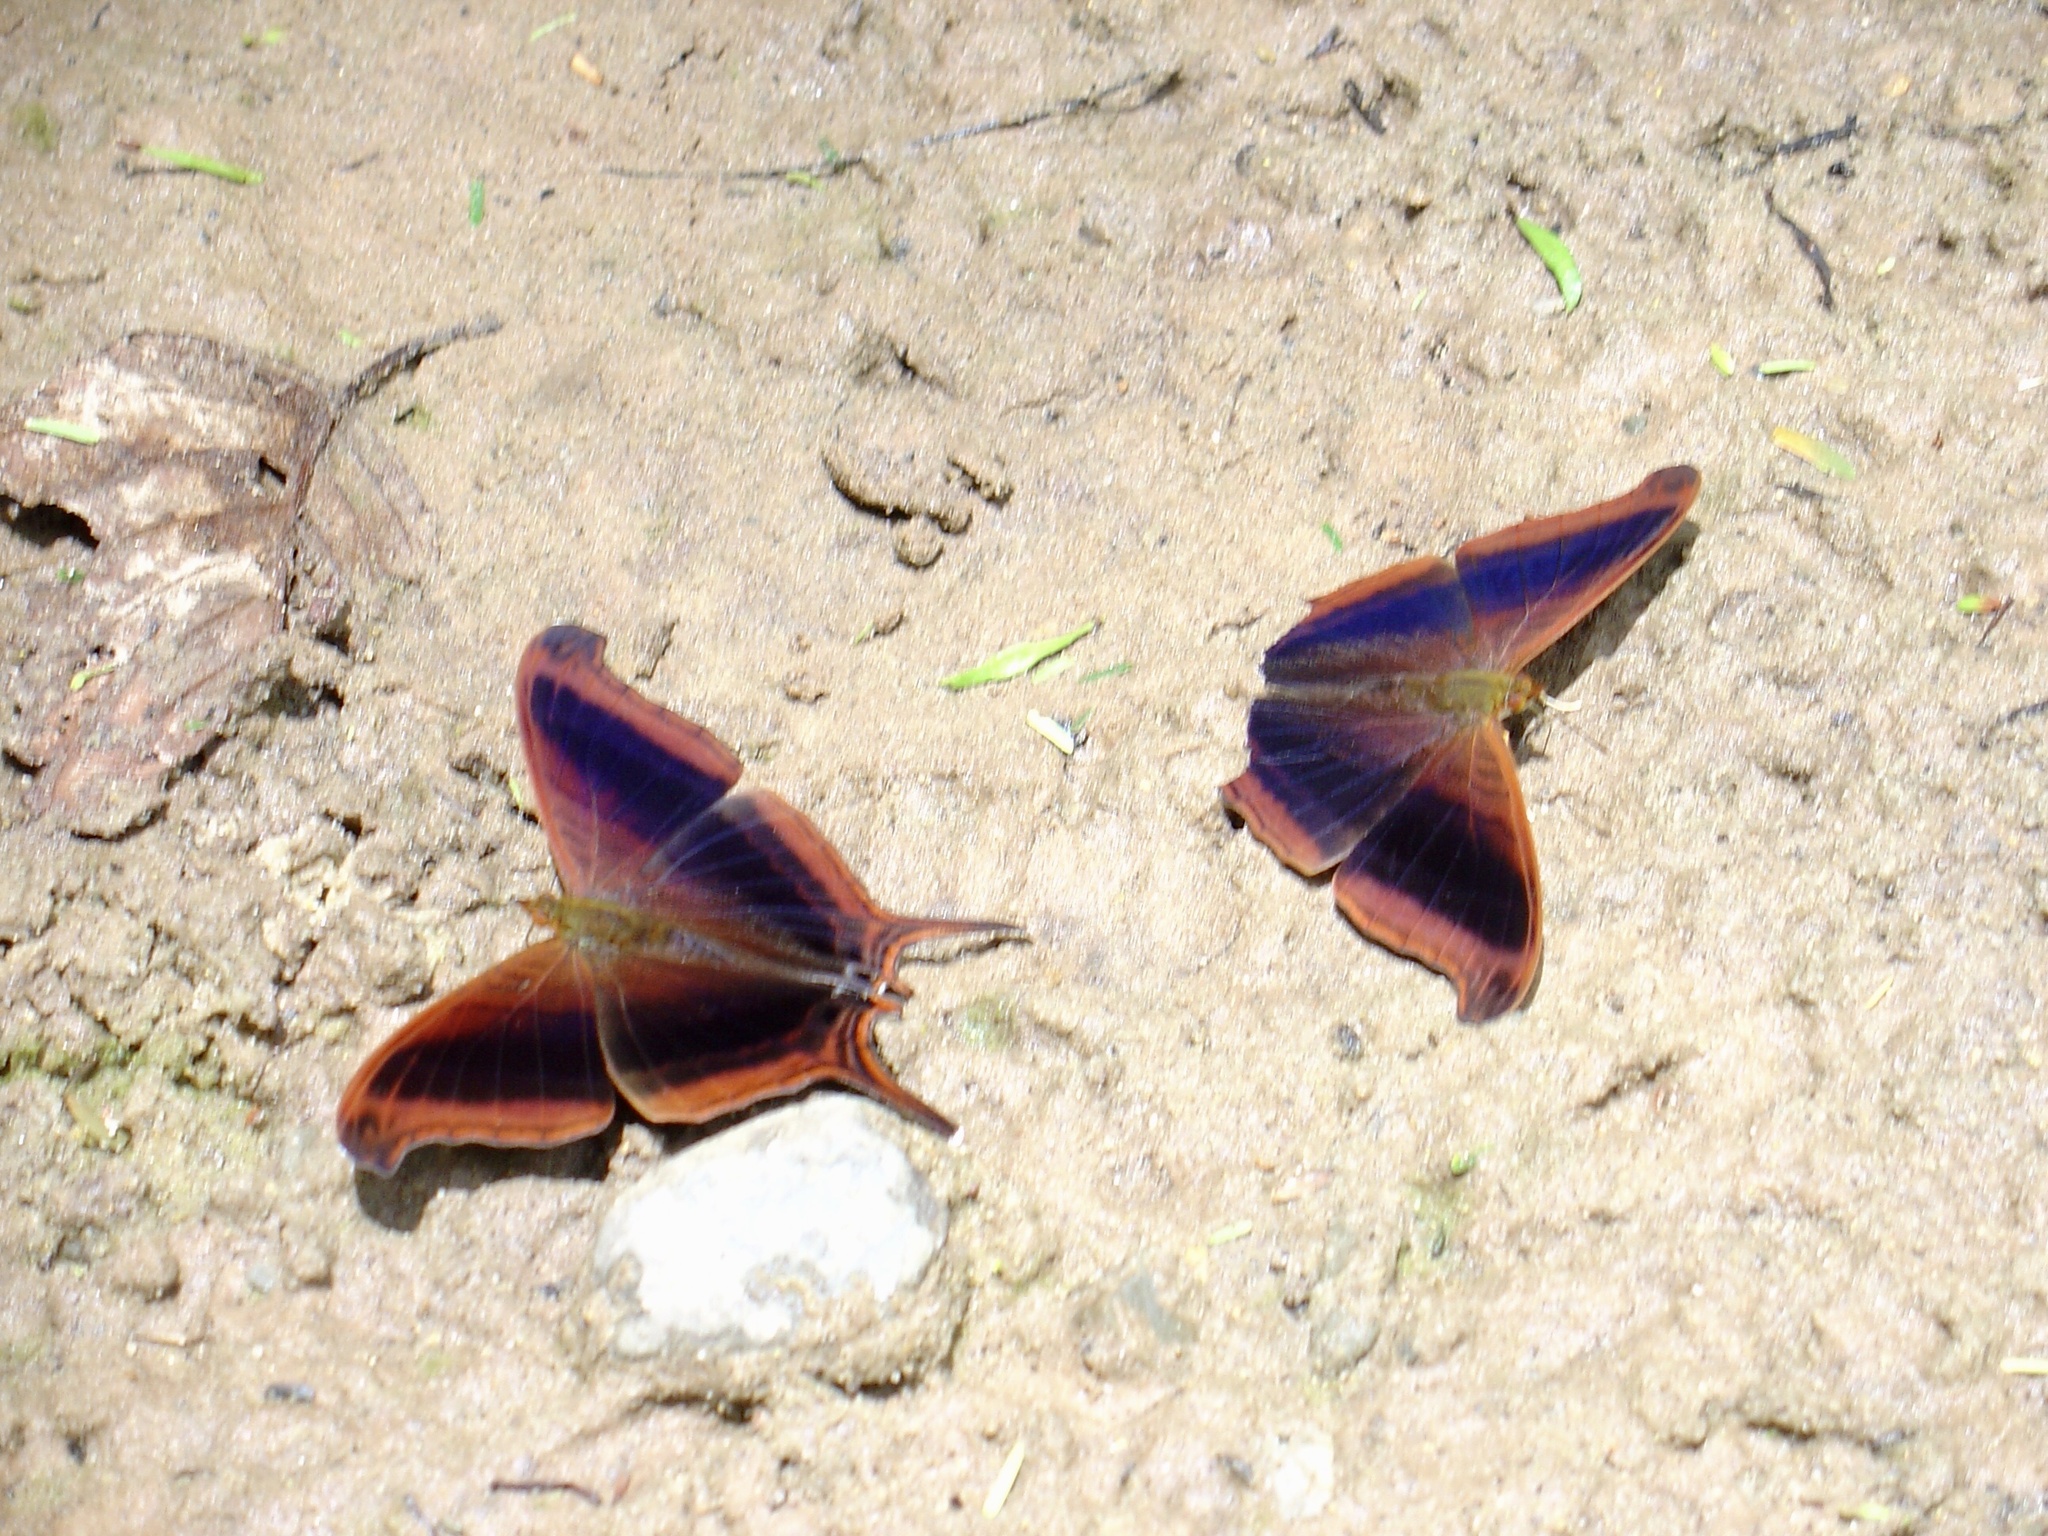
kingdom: Animalia
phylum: Arthropoda
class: Insecta
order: Lepidoptera
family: Nymphalidae
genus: Marpesia
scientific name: Marpesia zerynthia
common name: Waiter daggerwing
